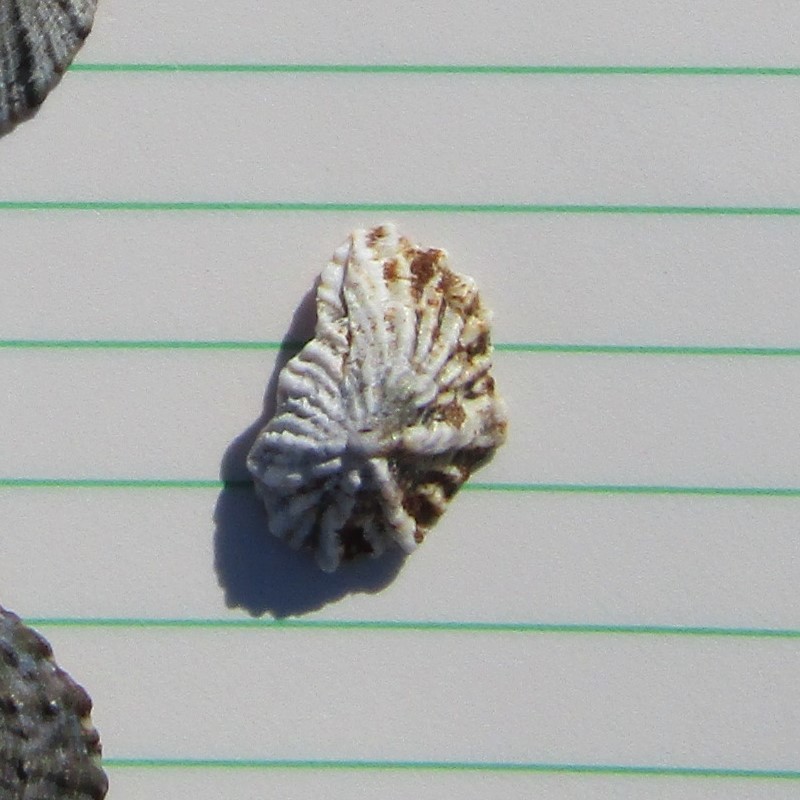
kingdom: Animalia
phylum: Mollusca
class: Gastropoda
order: Siphonariida
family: Siphonariidae
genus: Siphonaria
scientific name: Siphonaria australis
